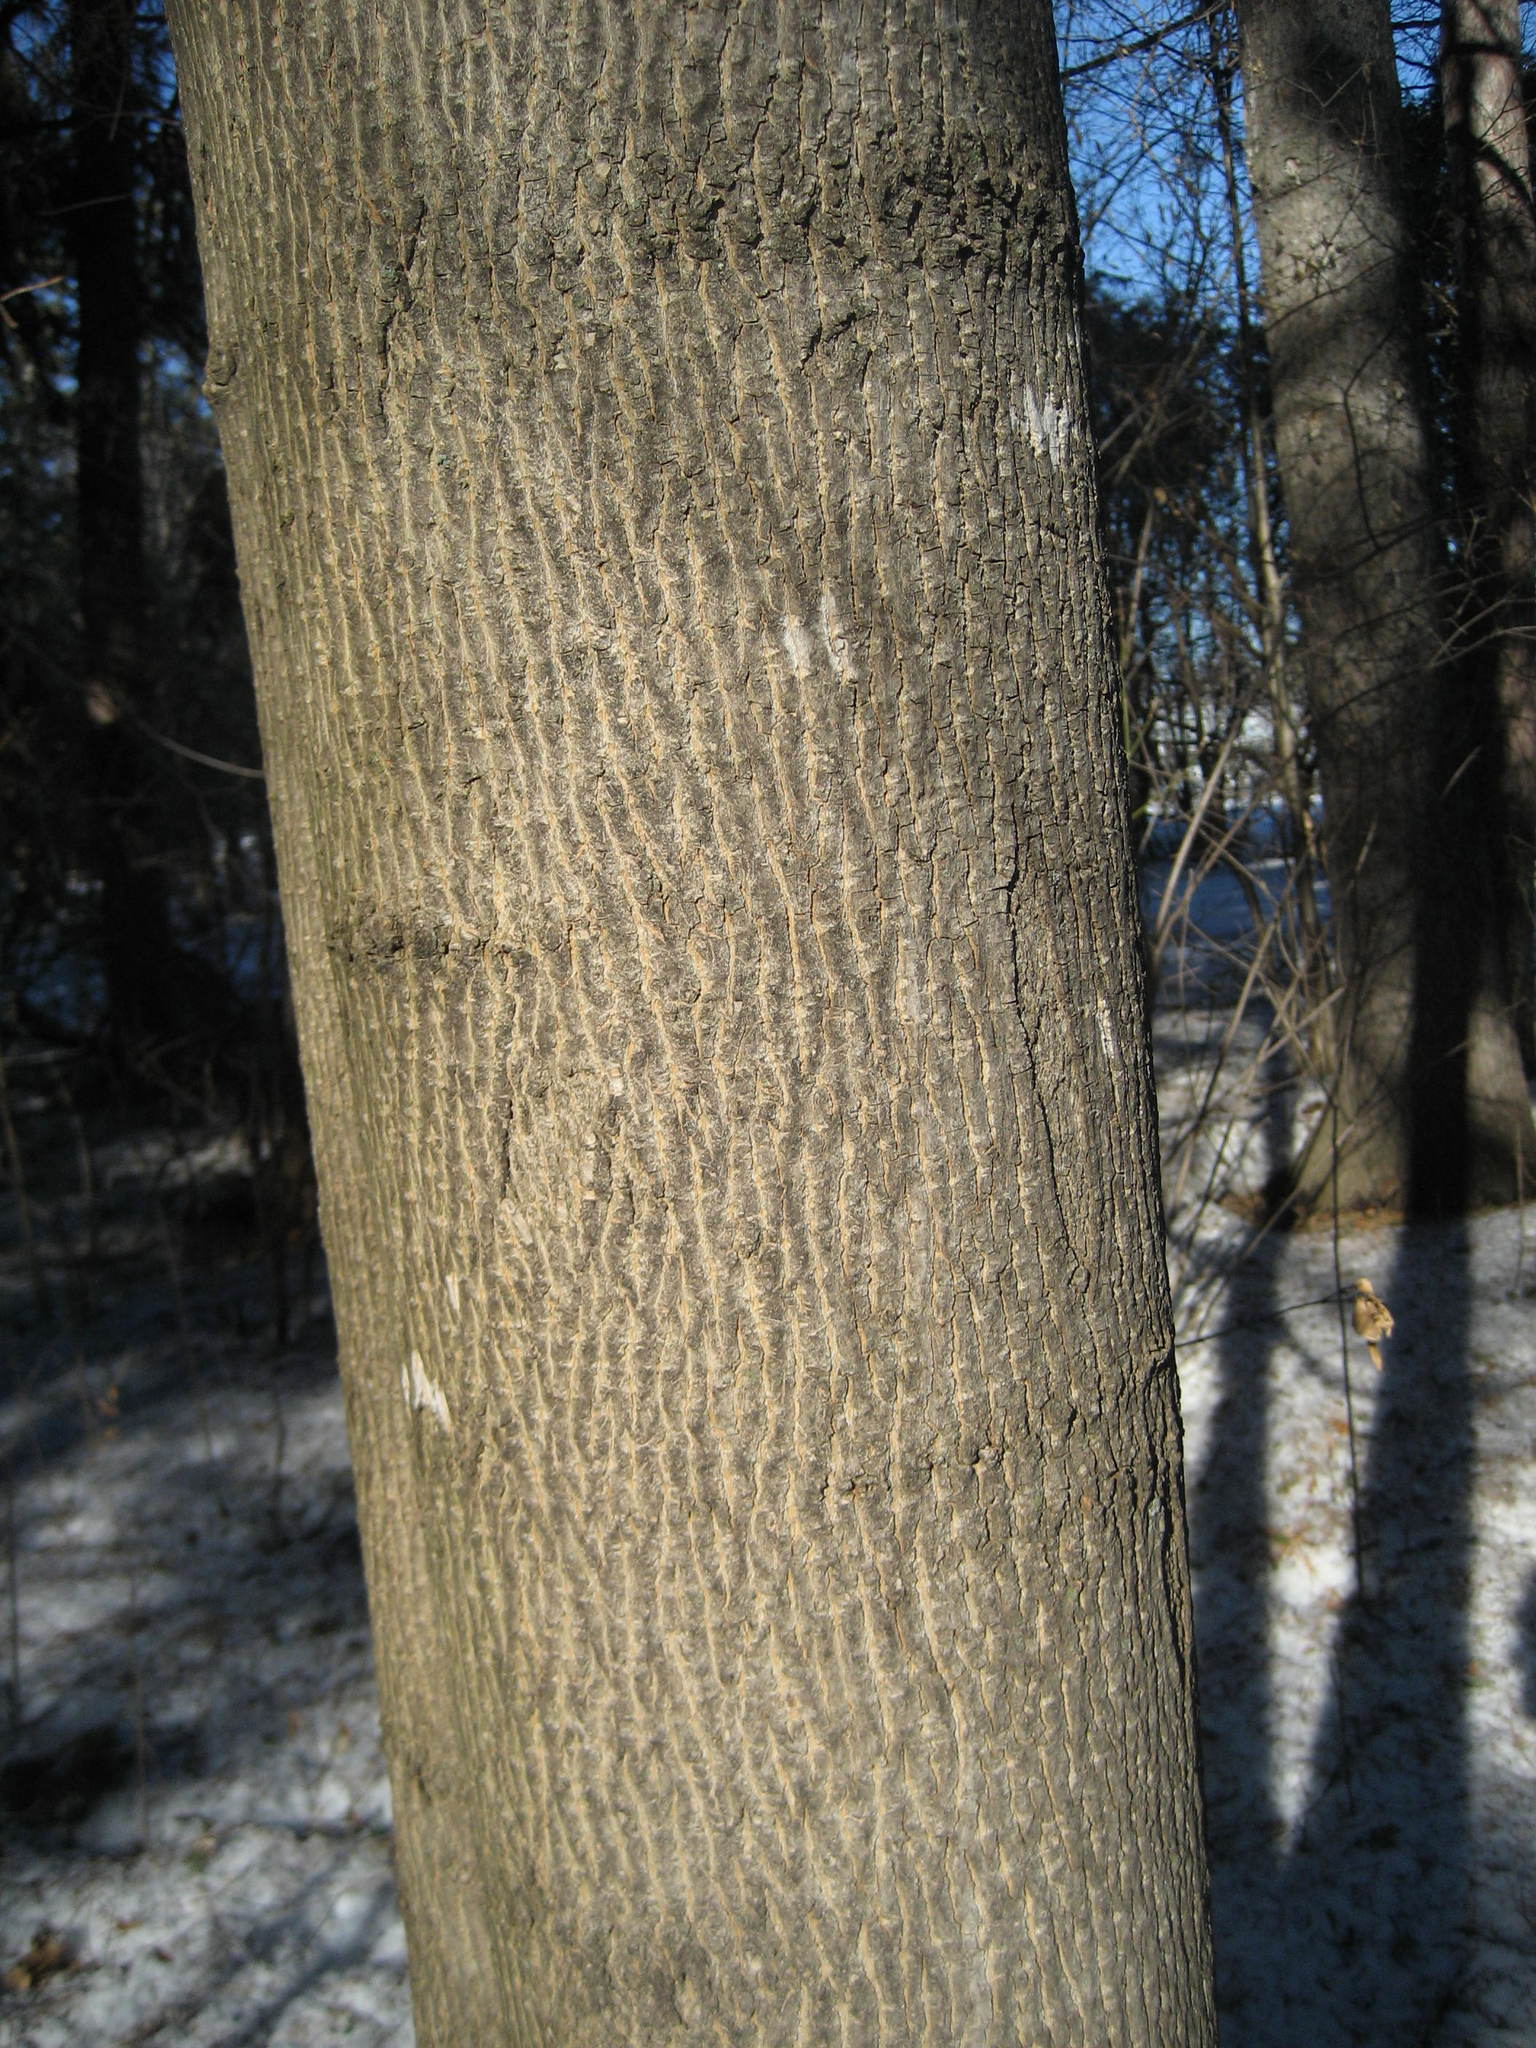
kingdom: Plantae
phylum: Tracheophyta
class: Magnoliopsida
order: Sapindales
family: Sapindaceae
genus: Acer
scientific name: Acer platanoides
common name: Norway maple
